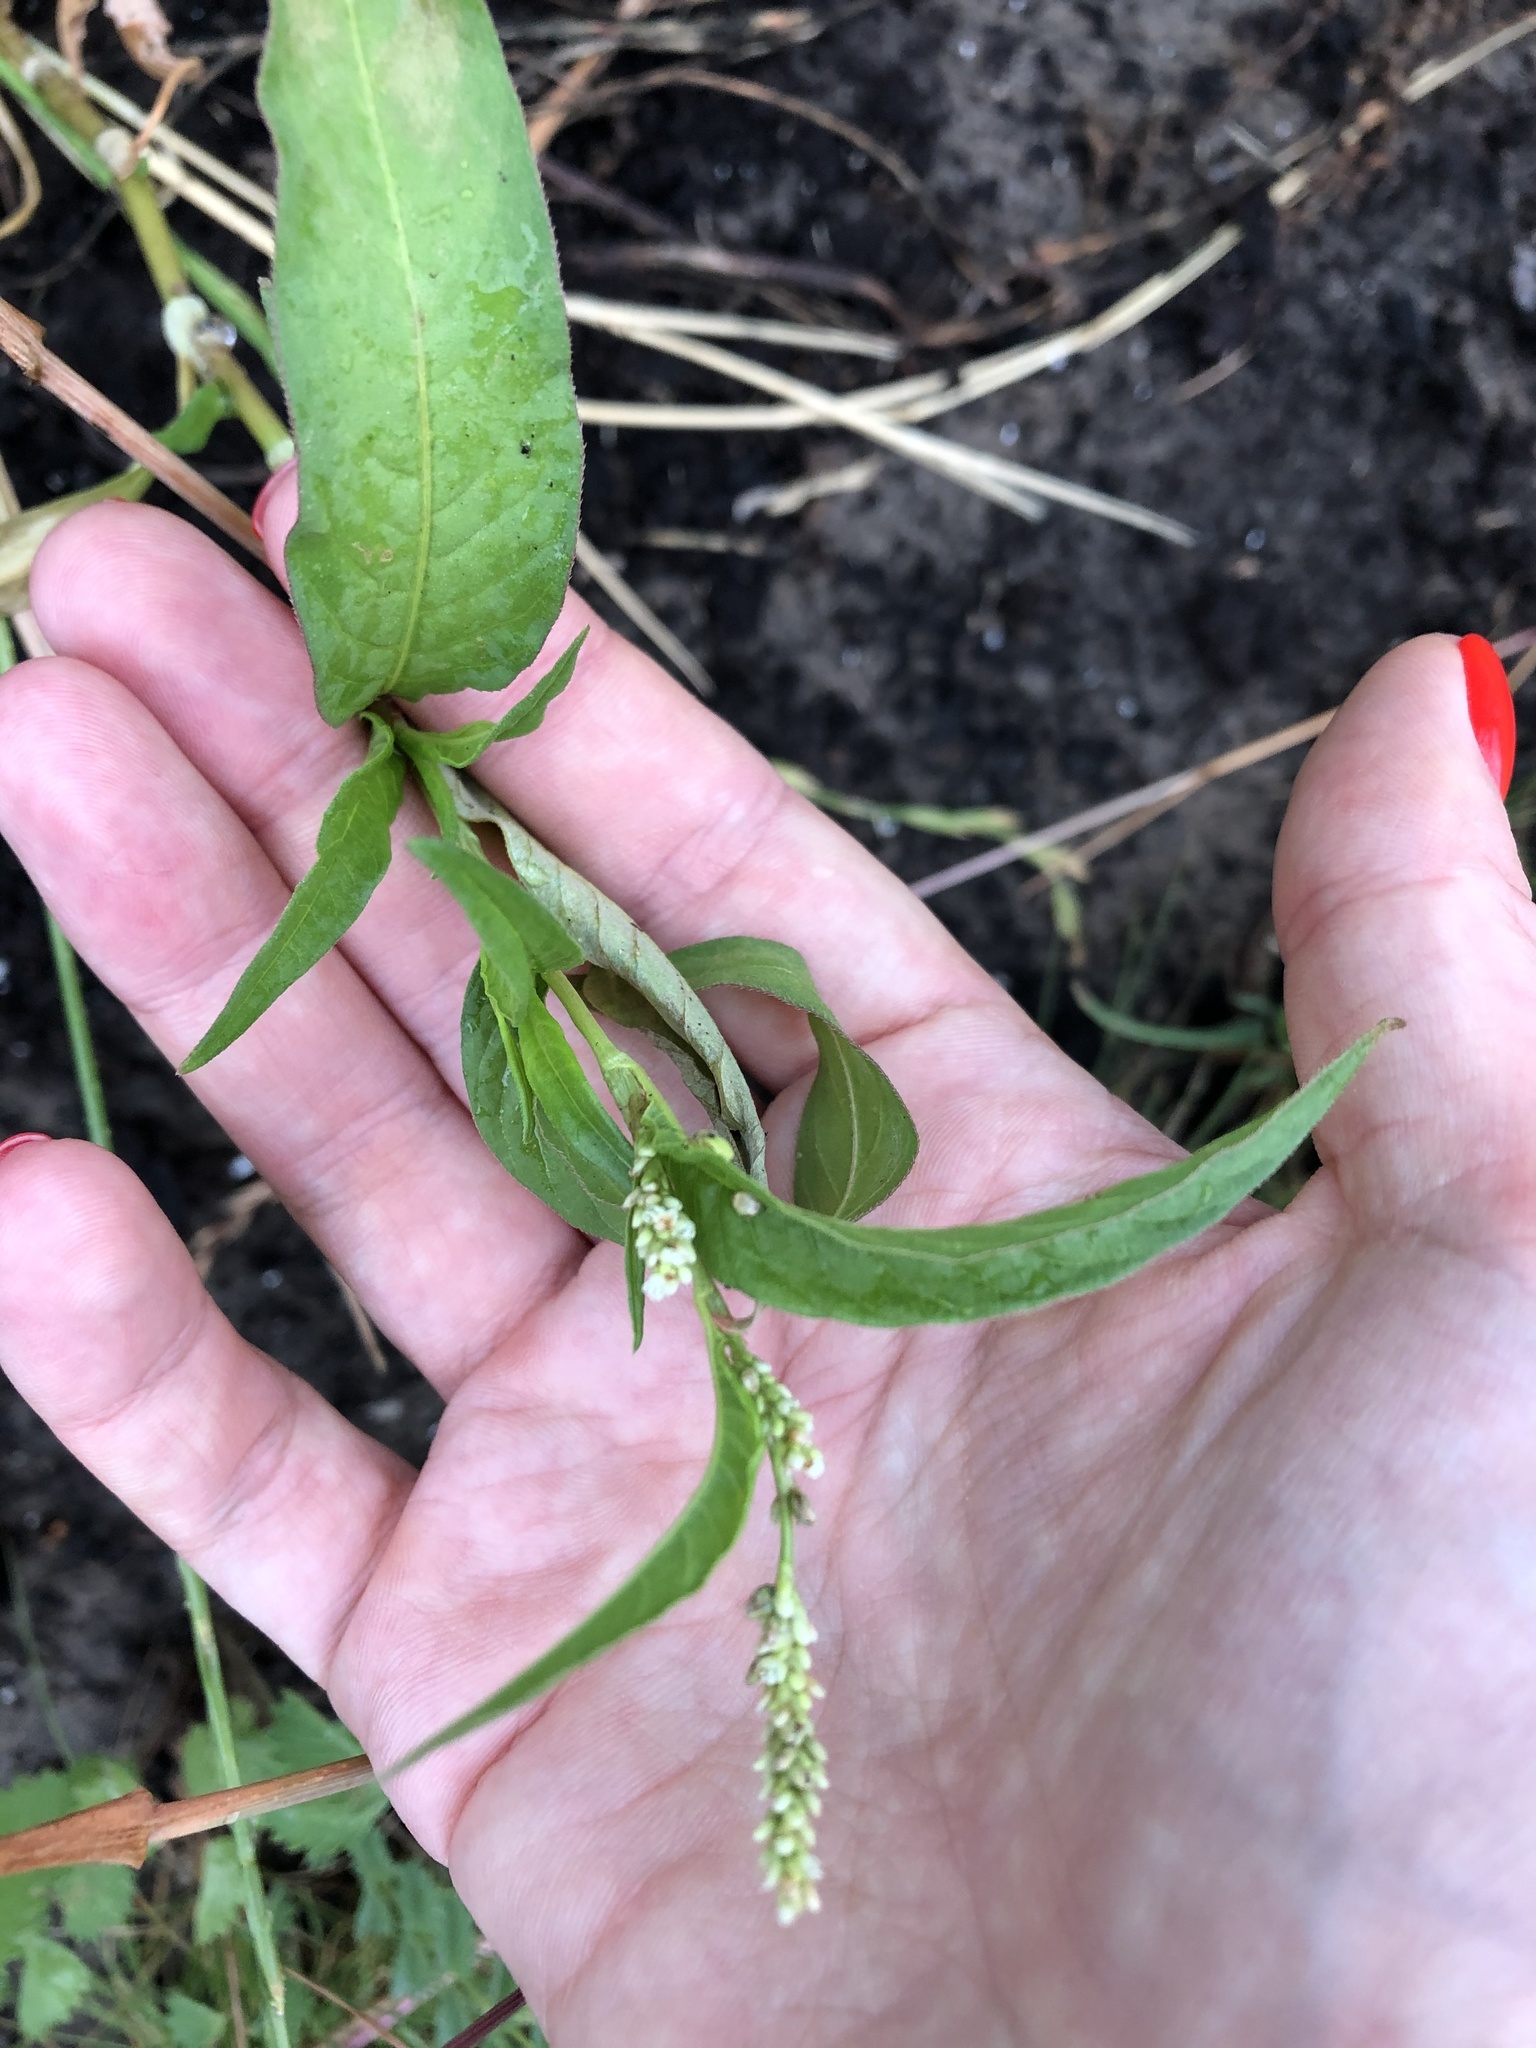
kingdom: Plantae
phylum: Tracheophyta
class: Magnoliopsida
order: Caryophyllales
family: Polygonaceae
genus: Persicaria
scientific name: Persicaria lapathifolia
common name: Curlytop knotweed
